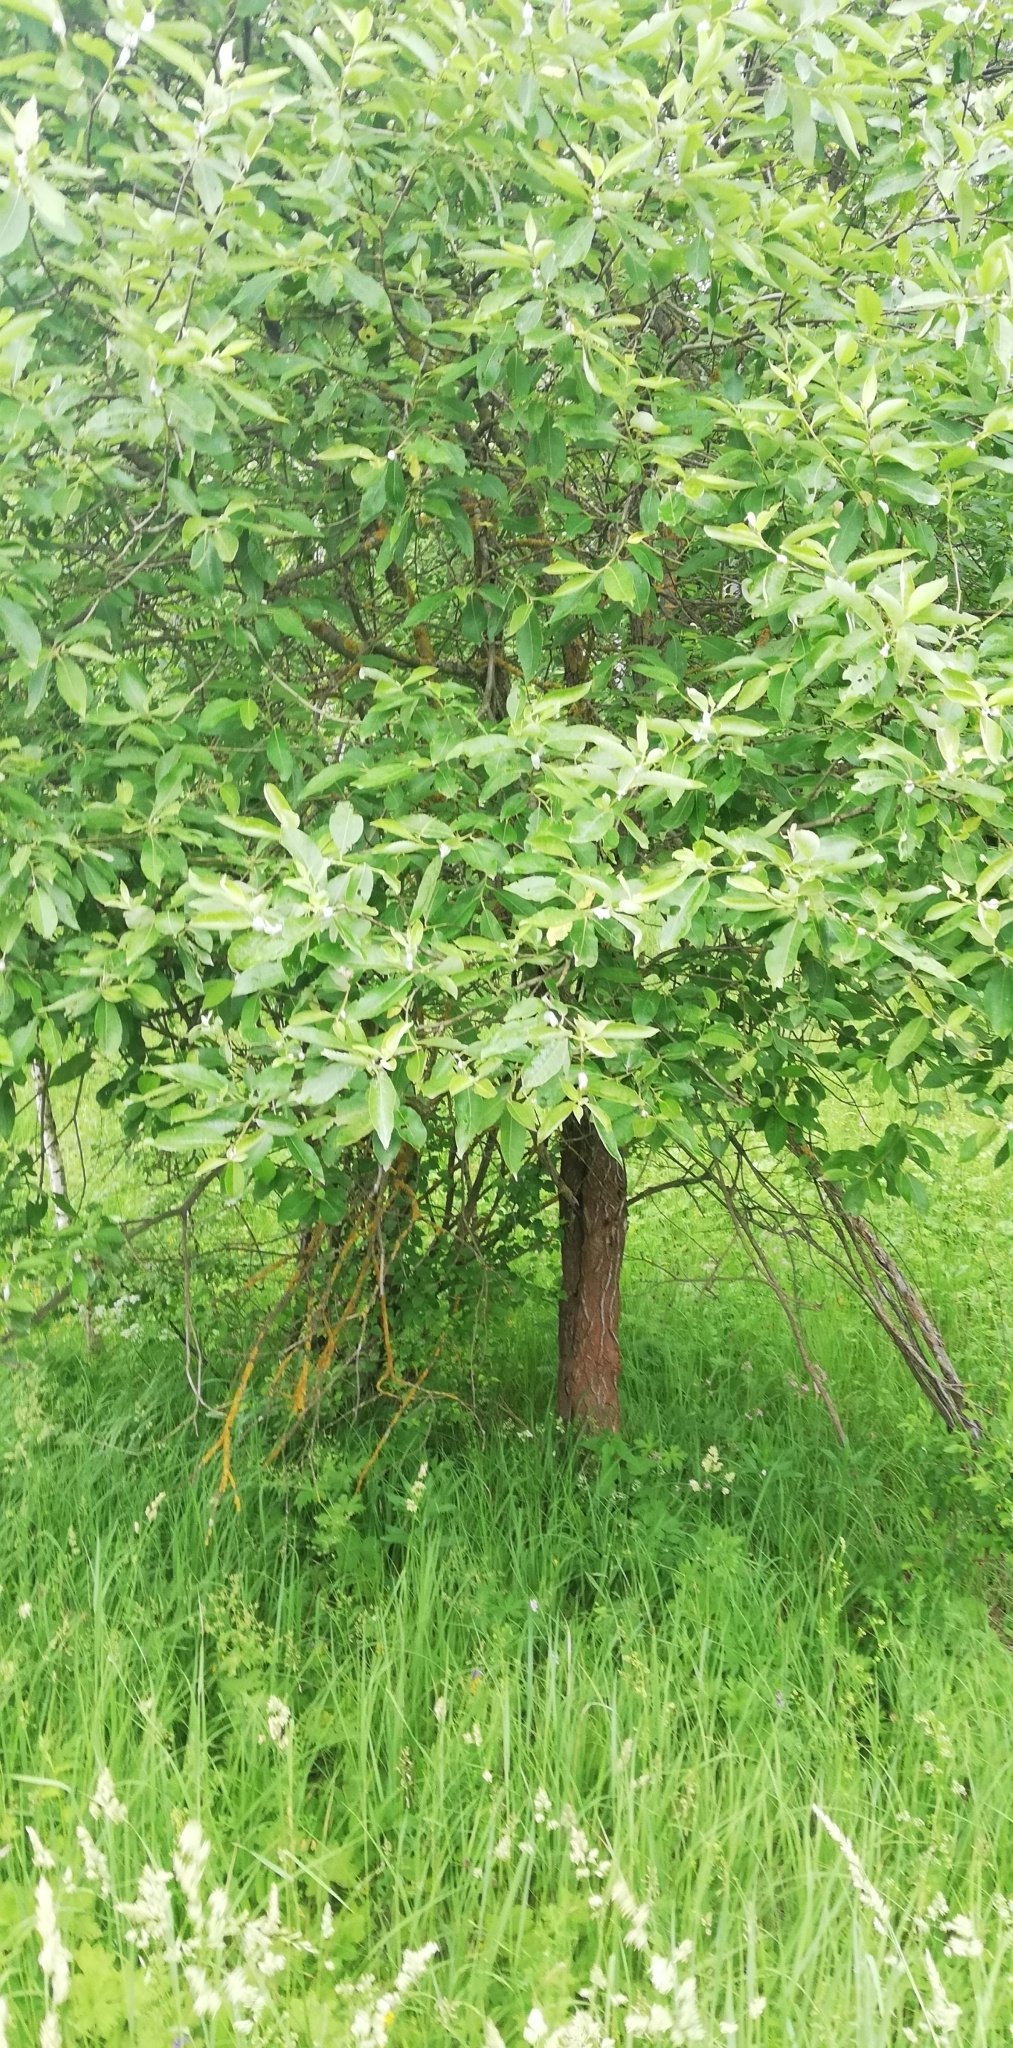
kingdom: Plantae
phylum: Tracheophyta
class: Magnoliopsida
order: Malpighiales
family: Salicaceae
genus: Salix
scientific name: Salix caprea
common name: Goat willow
